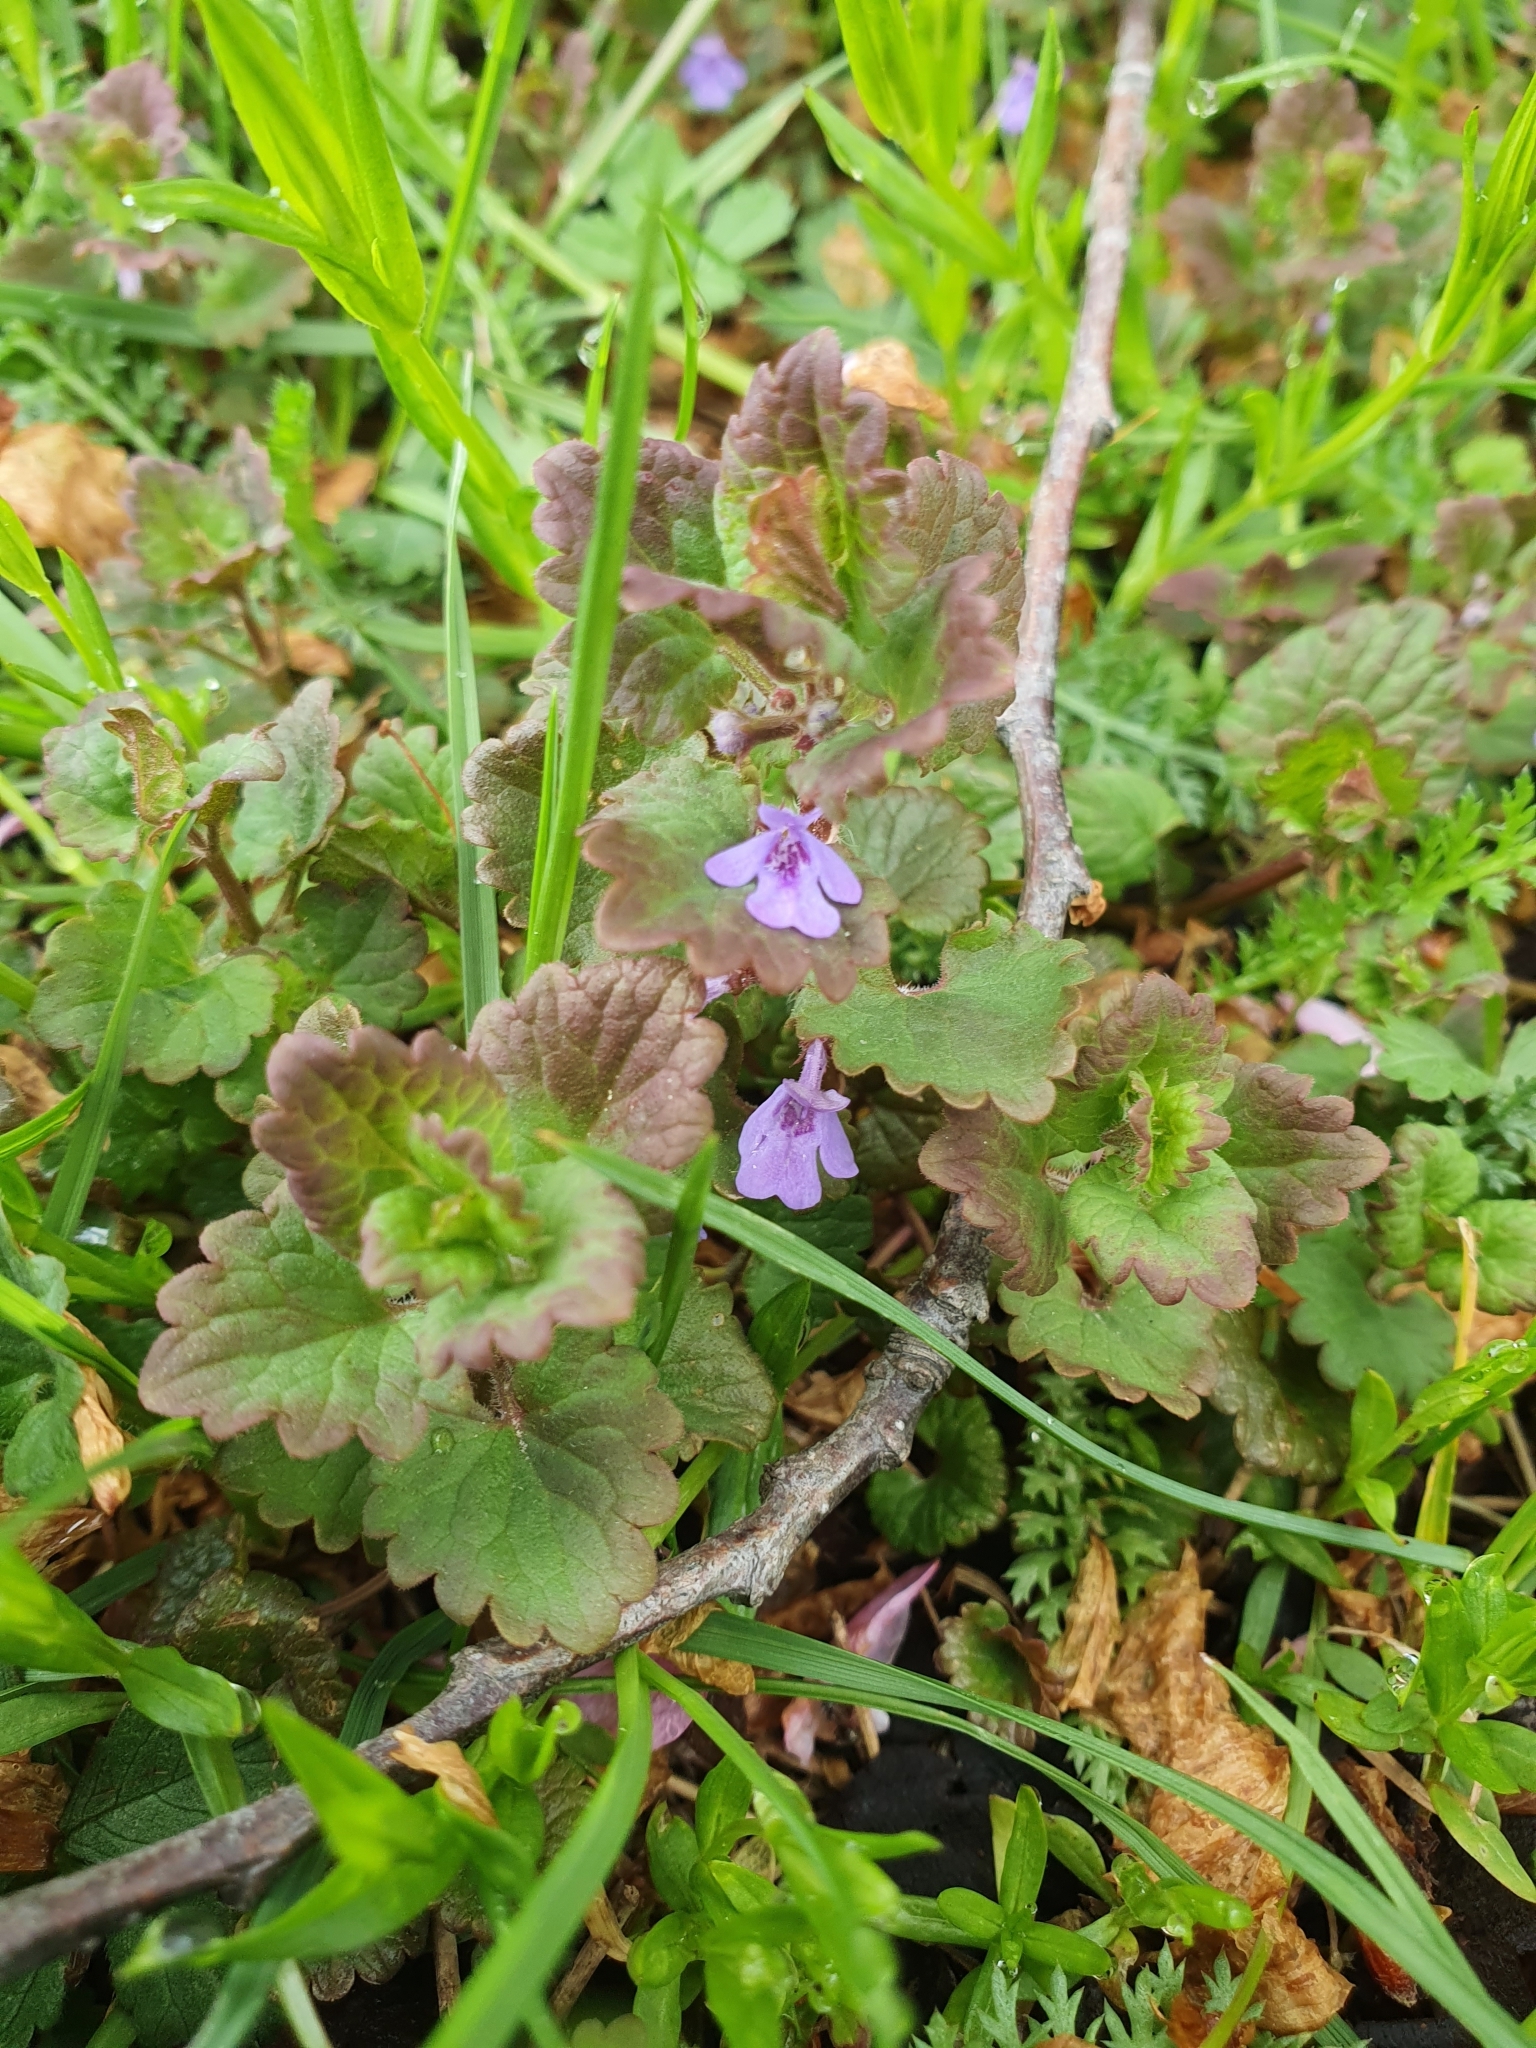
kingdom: Plantae
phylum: Tracheophyta
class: Magnoliopsida
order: Lamiales
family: Lamiaceae
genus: Glechoma
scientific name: Glechoma hederacea
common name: Ground ivy
